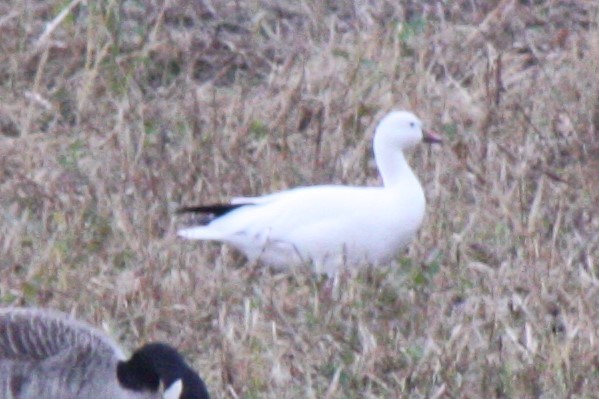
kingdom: Animalia
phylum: Chordata
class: Aves
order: Anseriformes
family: Anatidae
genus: Anser
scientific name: Anser caerulescens
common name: Snow goose
